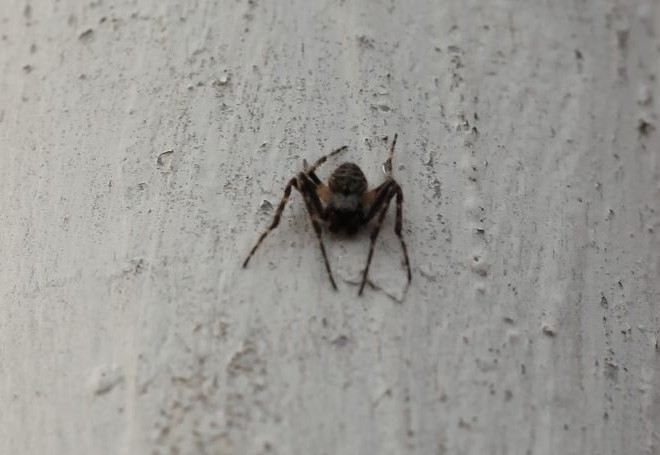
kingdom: Animalia
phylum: Arthropoda
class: Arachnida
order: Araneae
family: Araneidae
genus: Nuctenea
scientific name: Nuctenea umbratica
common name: Toad spider
